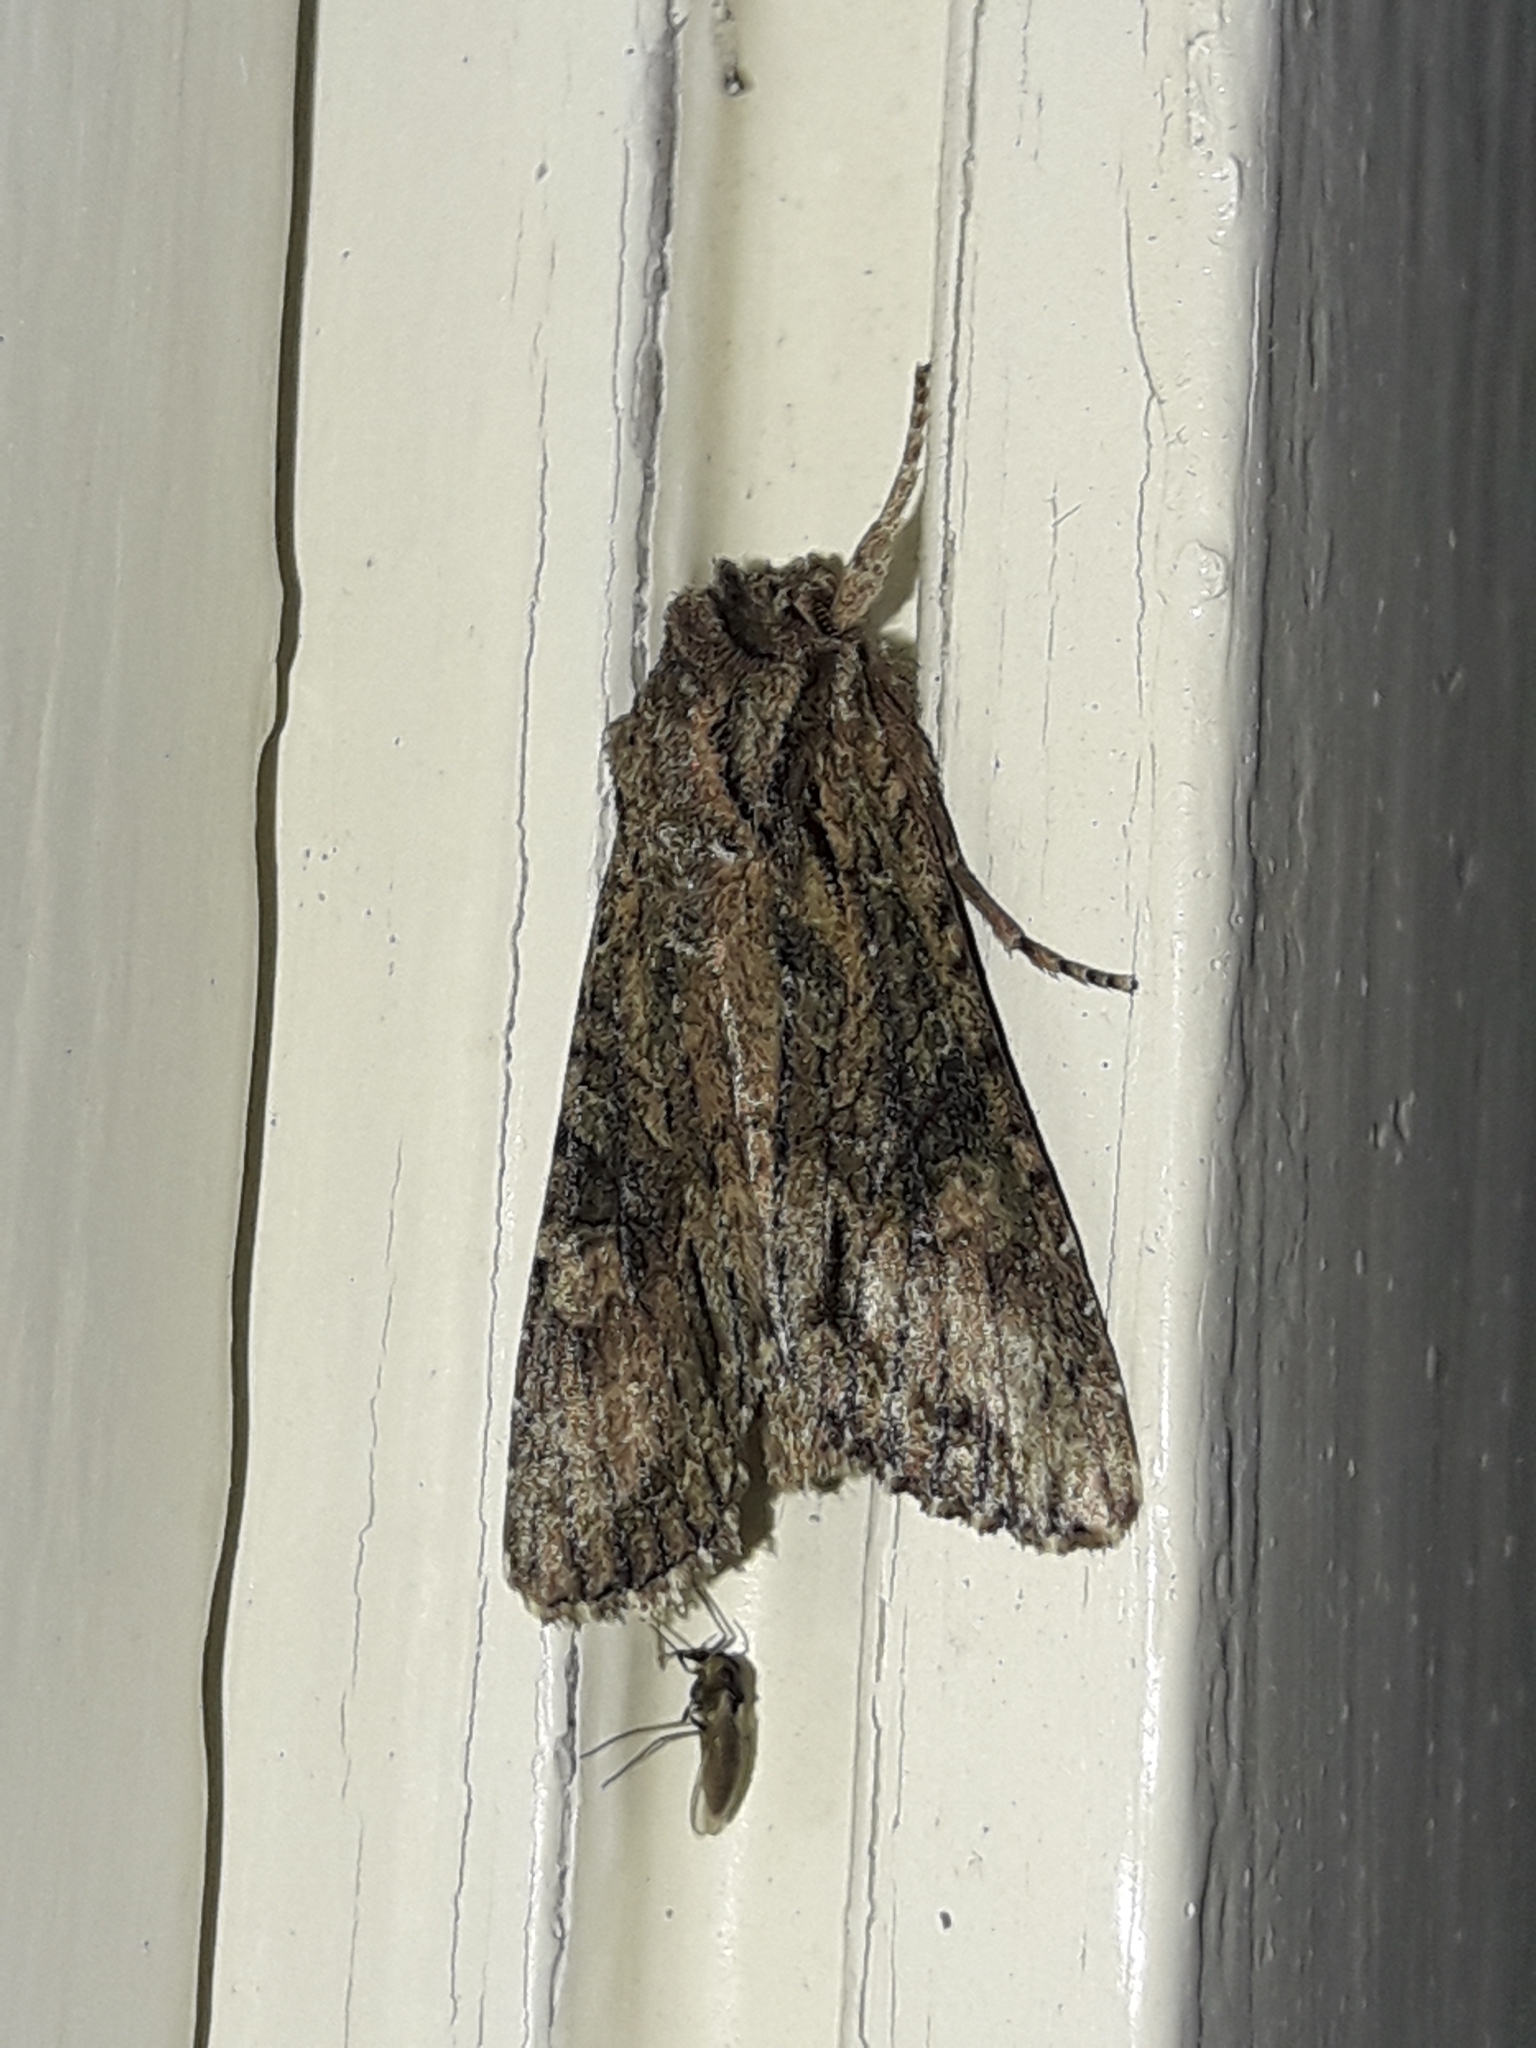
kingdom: Animalia
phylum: Arthropoda
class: Insecta
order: Lepidoptera
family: Noctuidae
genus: Ichneutica
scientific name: Ichneutica mutans
